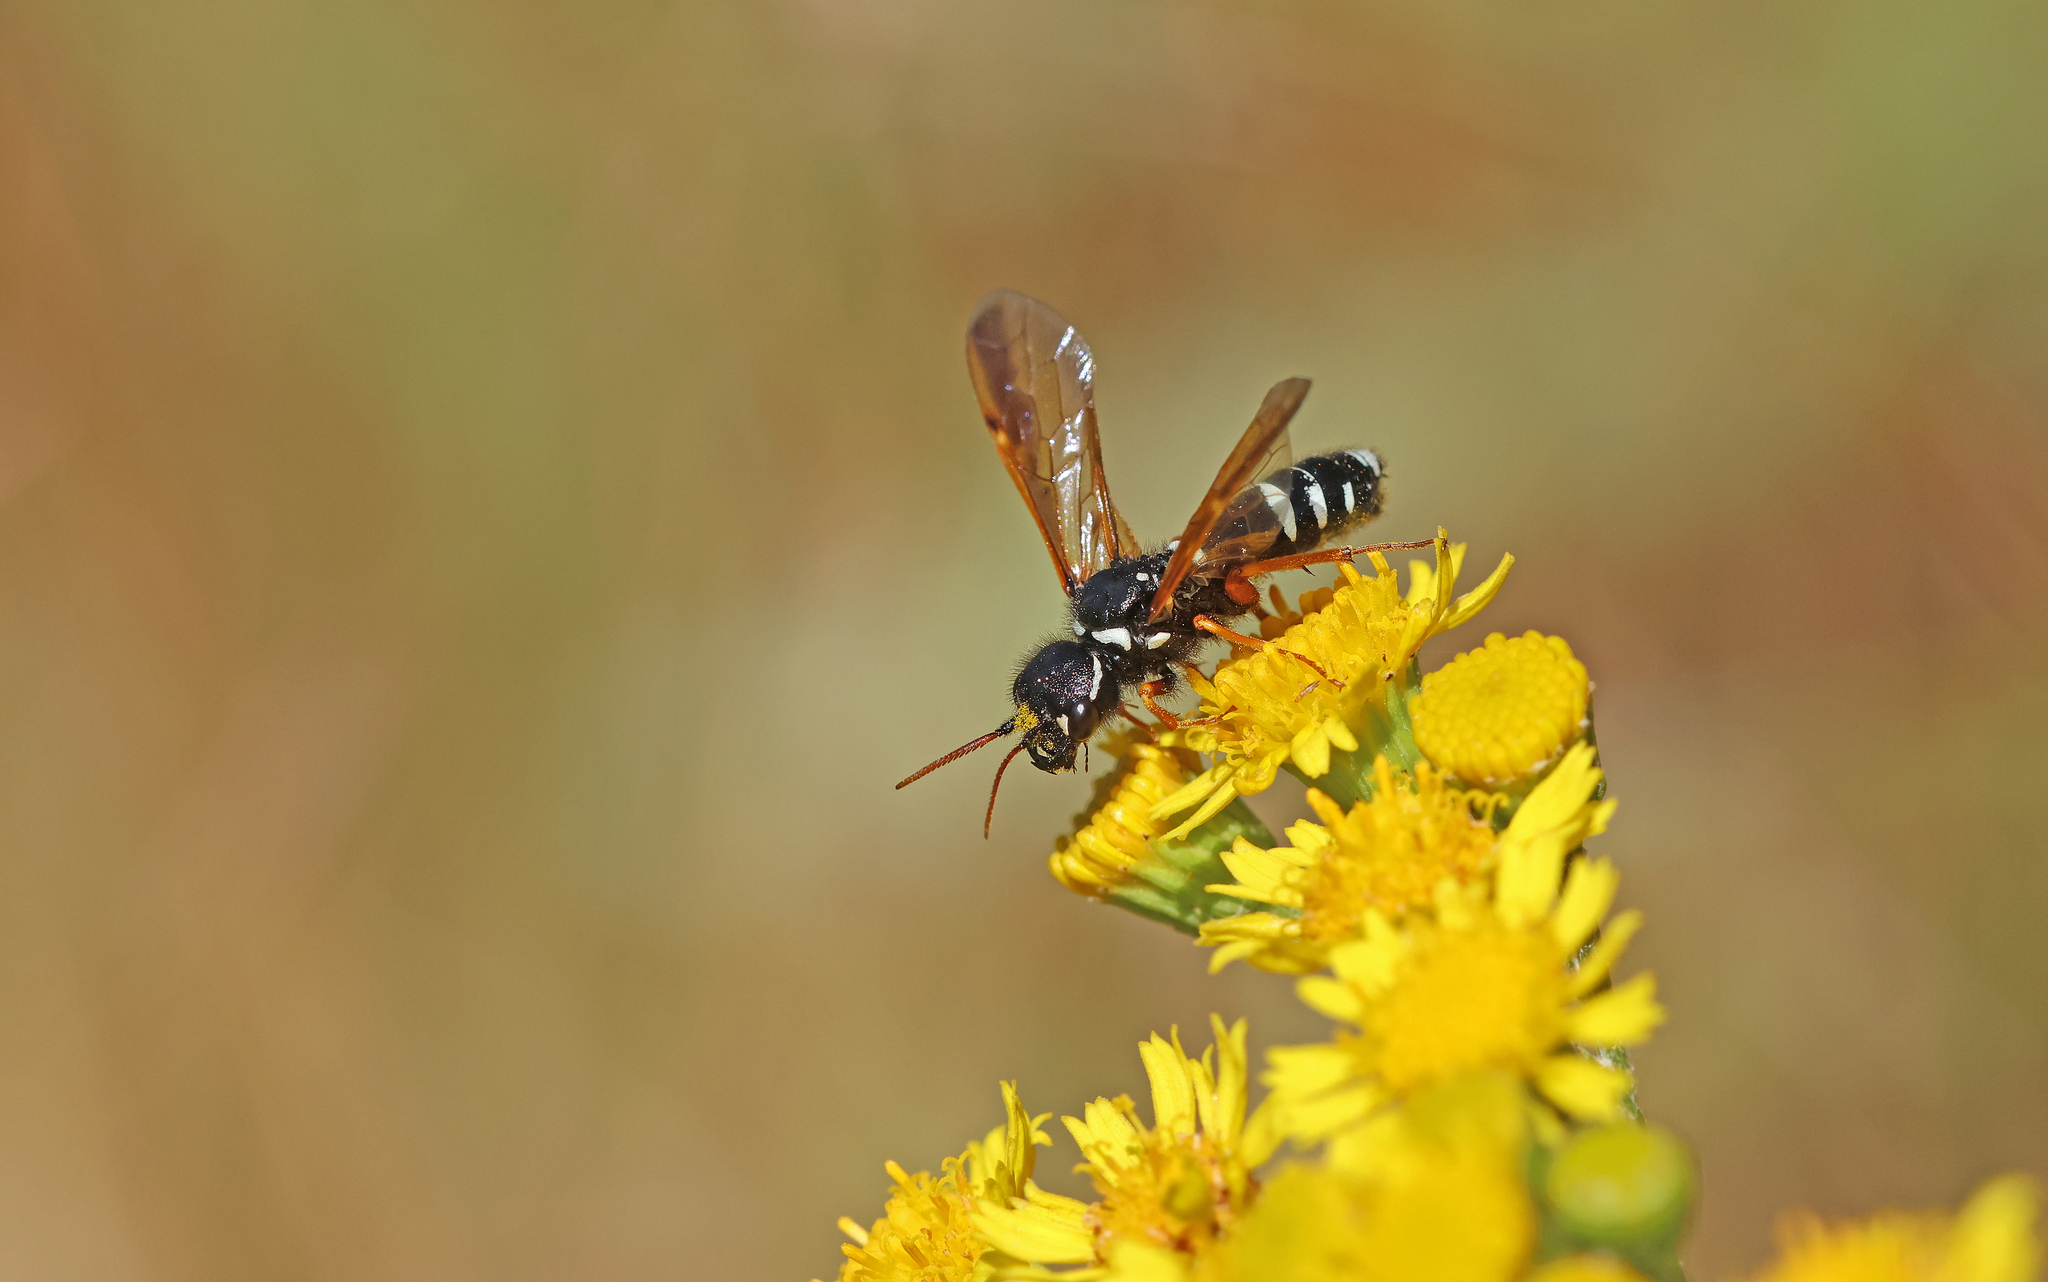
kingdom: Animalia
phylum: Arthropoda
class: Insecta
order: Hymenoptera
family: Megalodontesidae
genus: Megalodontes
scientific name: Megalodontes fabricii
